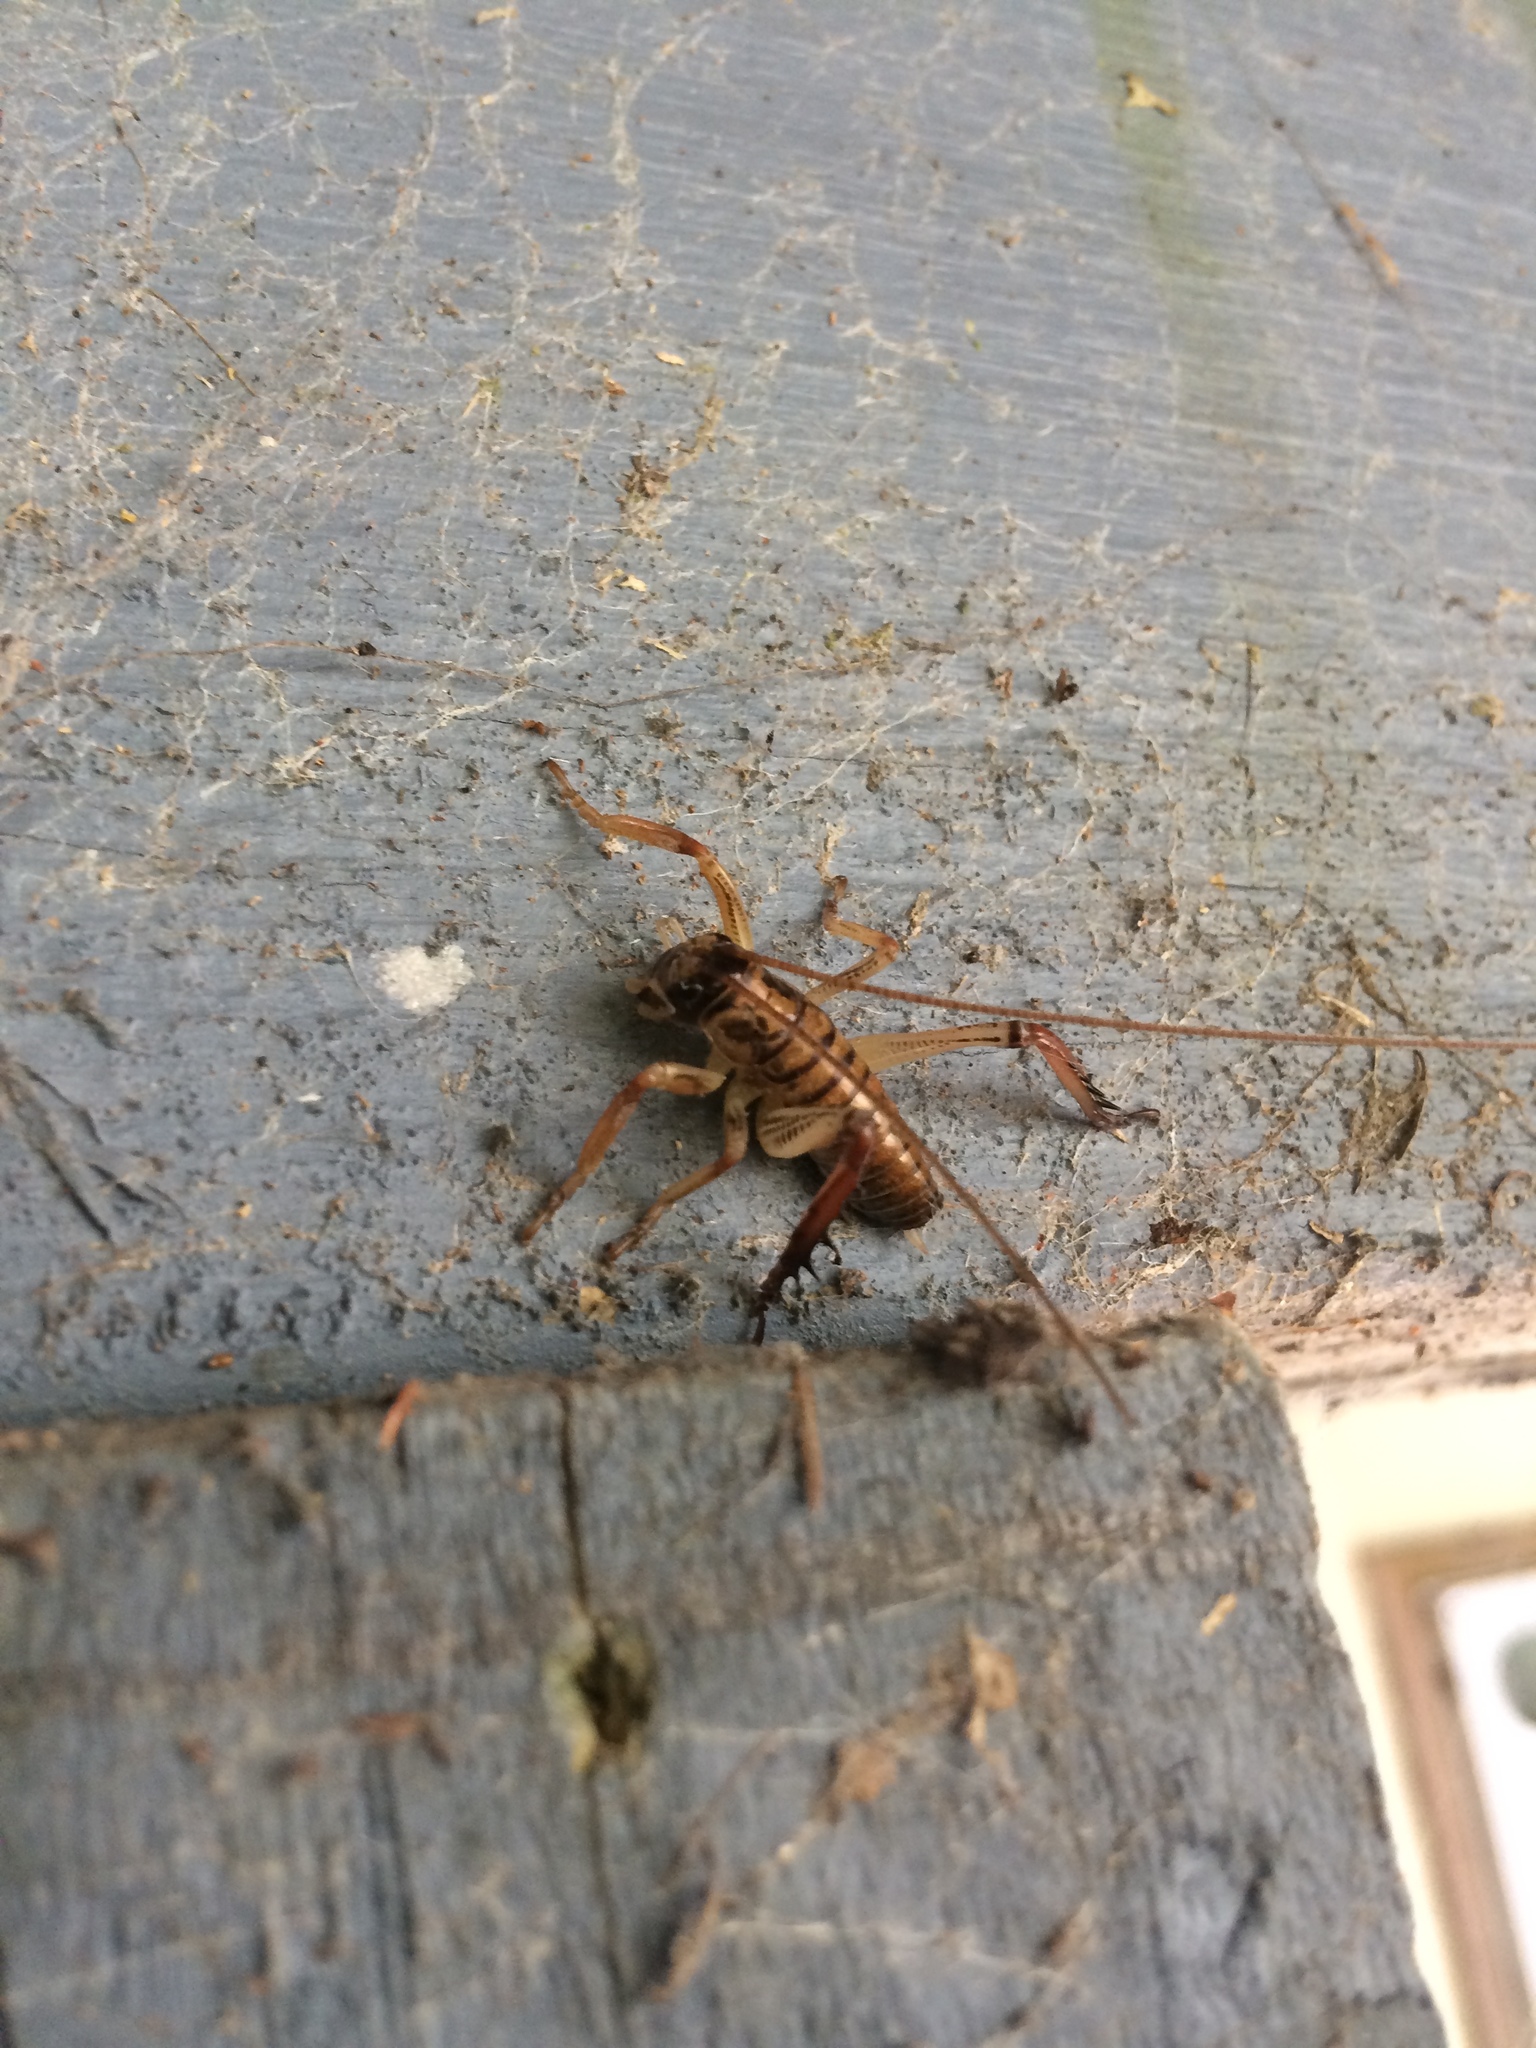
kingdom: Animalia
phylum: Arthropoda
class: Insecta
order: Orthoptera
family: Anostostomatidae
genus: Hemideina
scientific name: Hemideina thoracica
